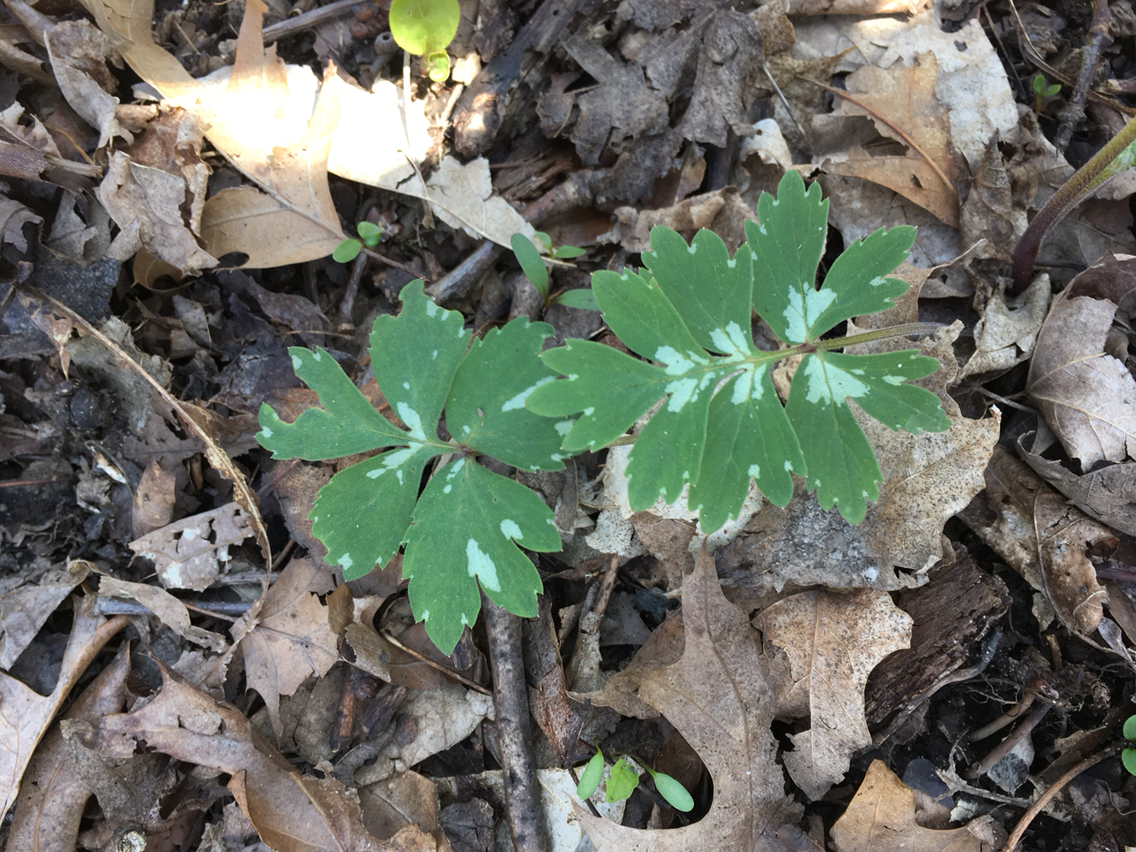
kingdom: Plantae
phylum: Tracheophyta
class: Magnoliopsida
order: Boraginales
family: Hydrophyllaceae
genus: Hydrophyllum
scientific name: Hydrophyllum virginianum
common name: Virginia waterleaf
